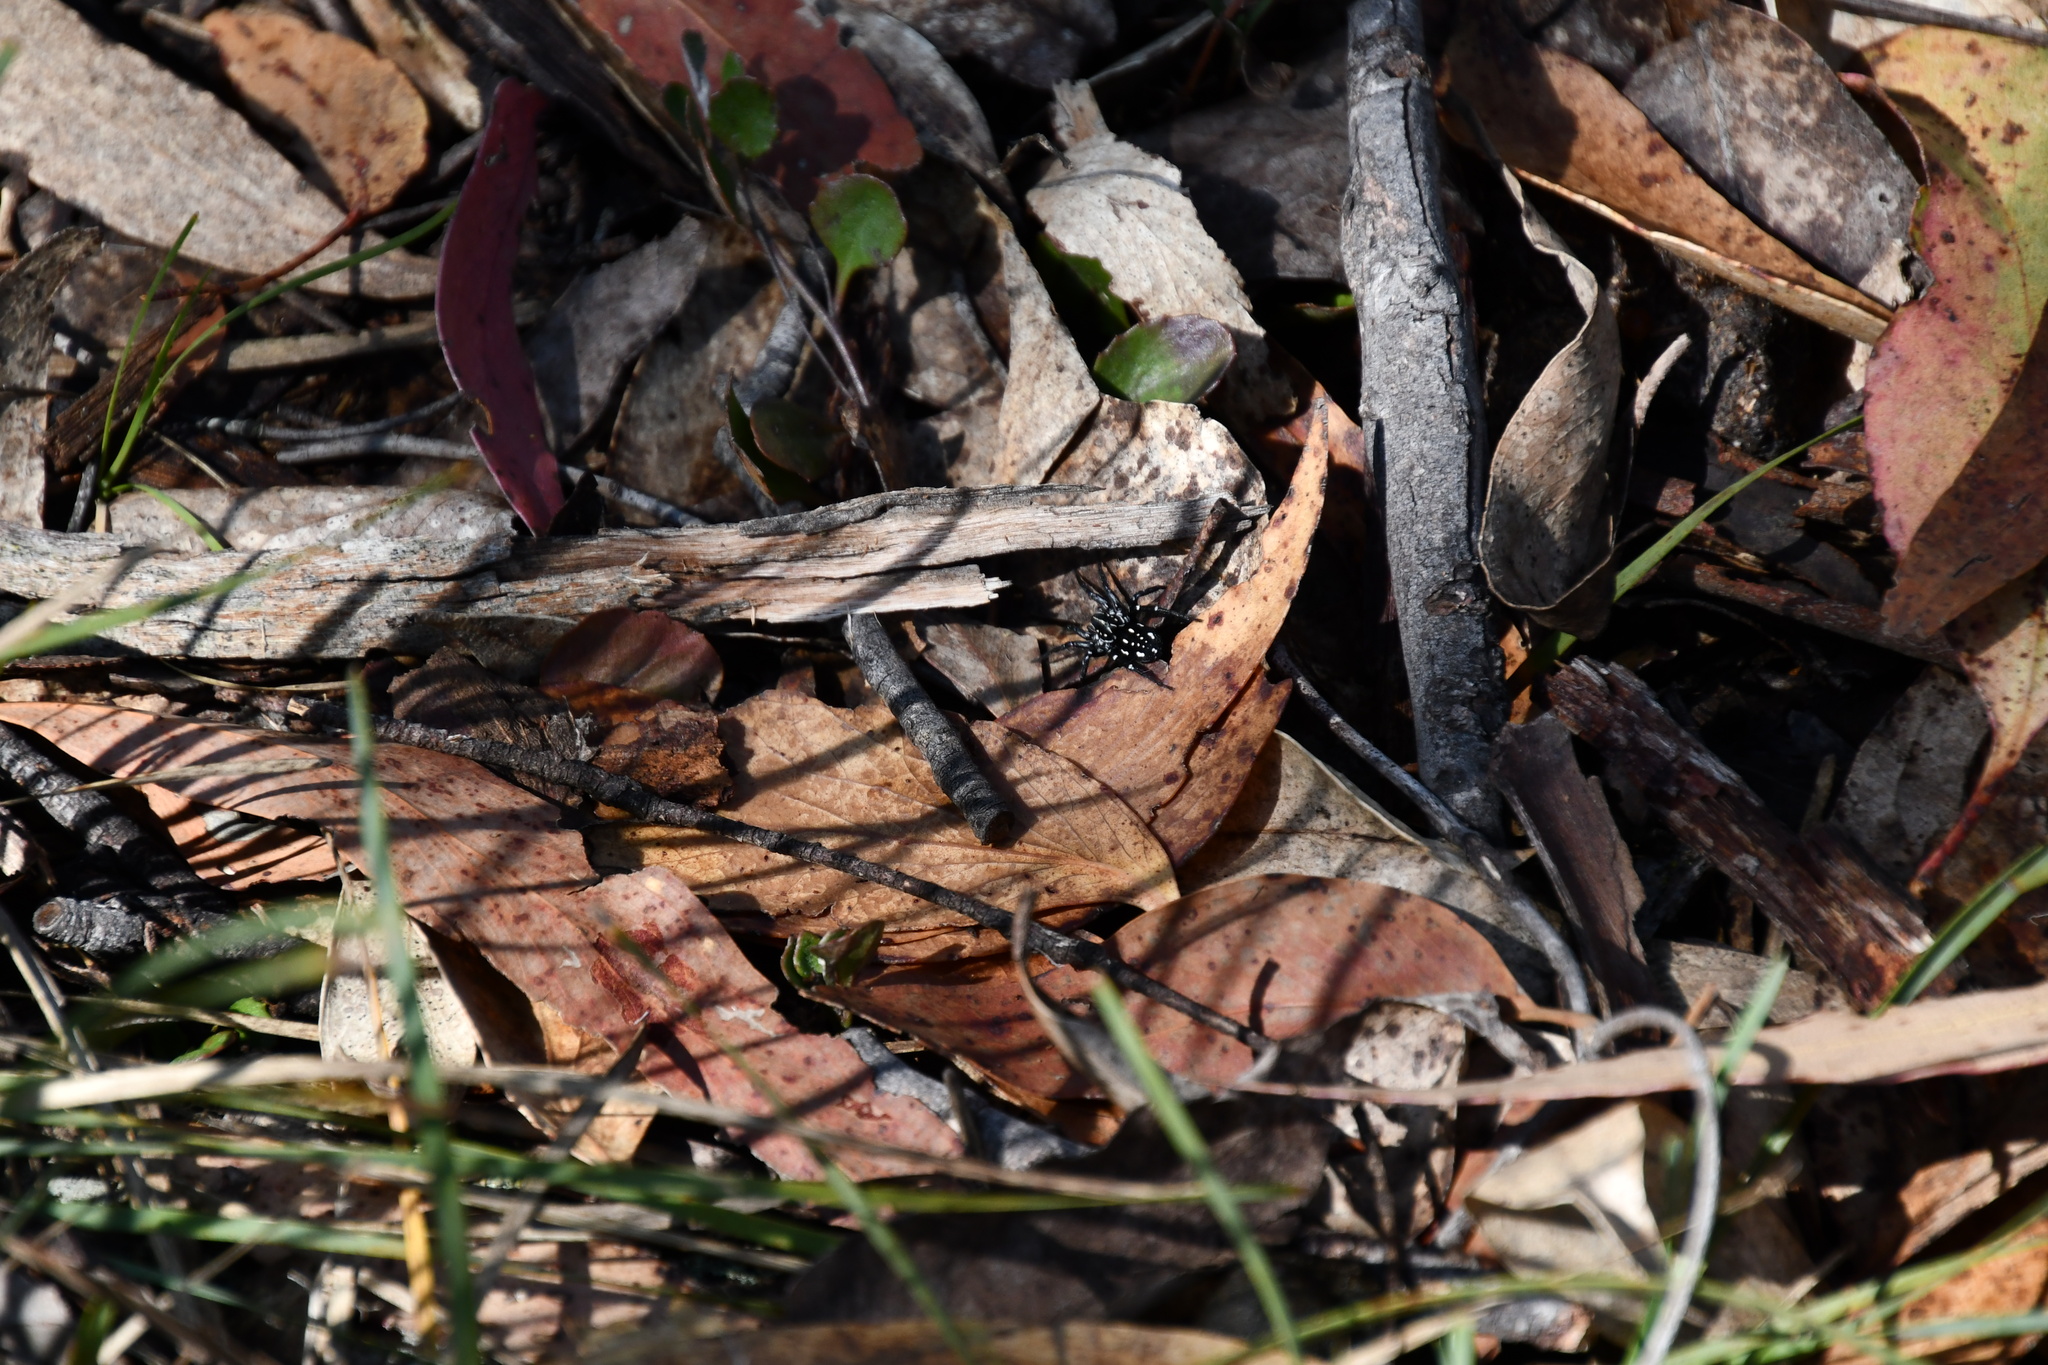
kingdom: Animalia
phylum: Arthropoda
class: Arachnida
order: Araneae
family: Corinnidae
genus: Nyssus
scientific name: Nyssus albopunctatus
